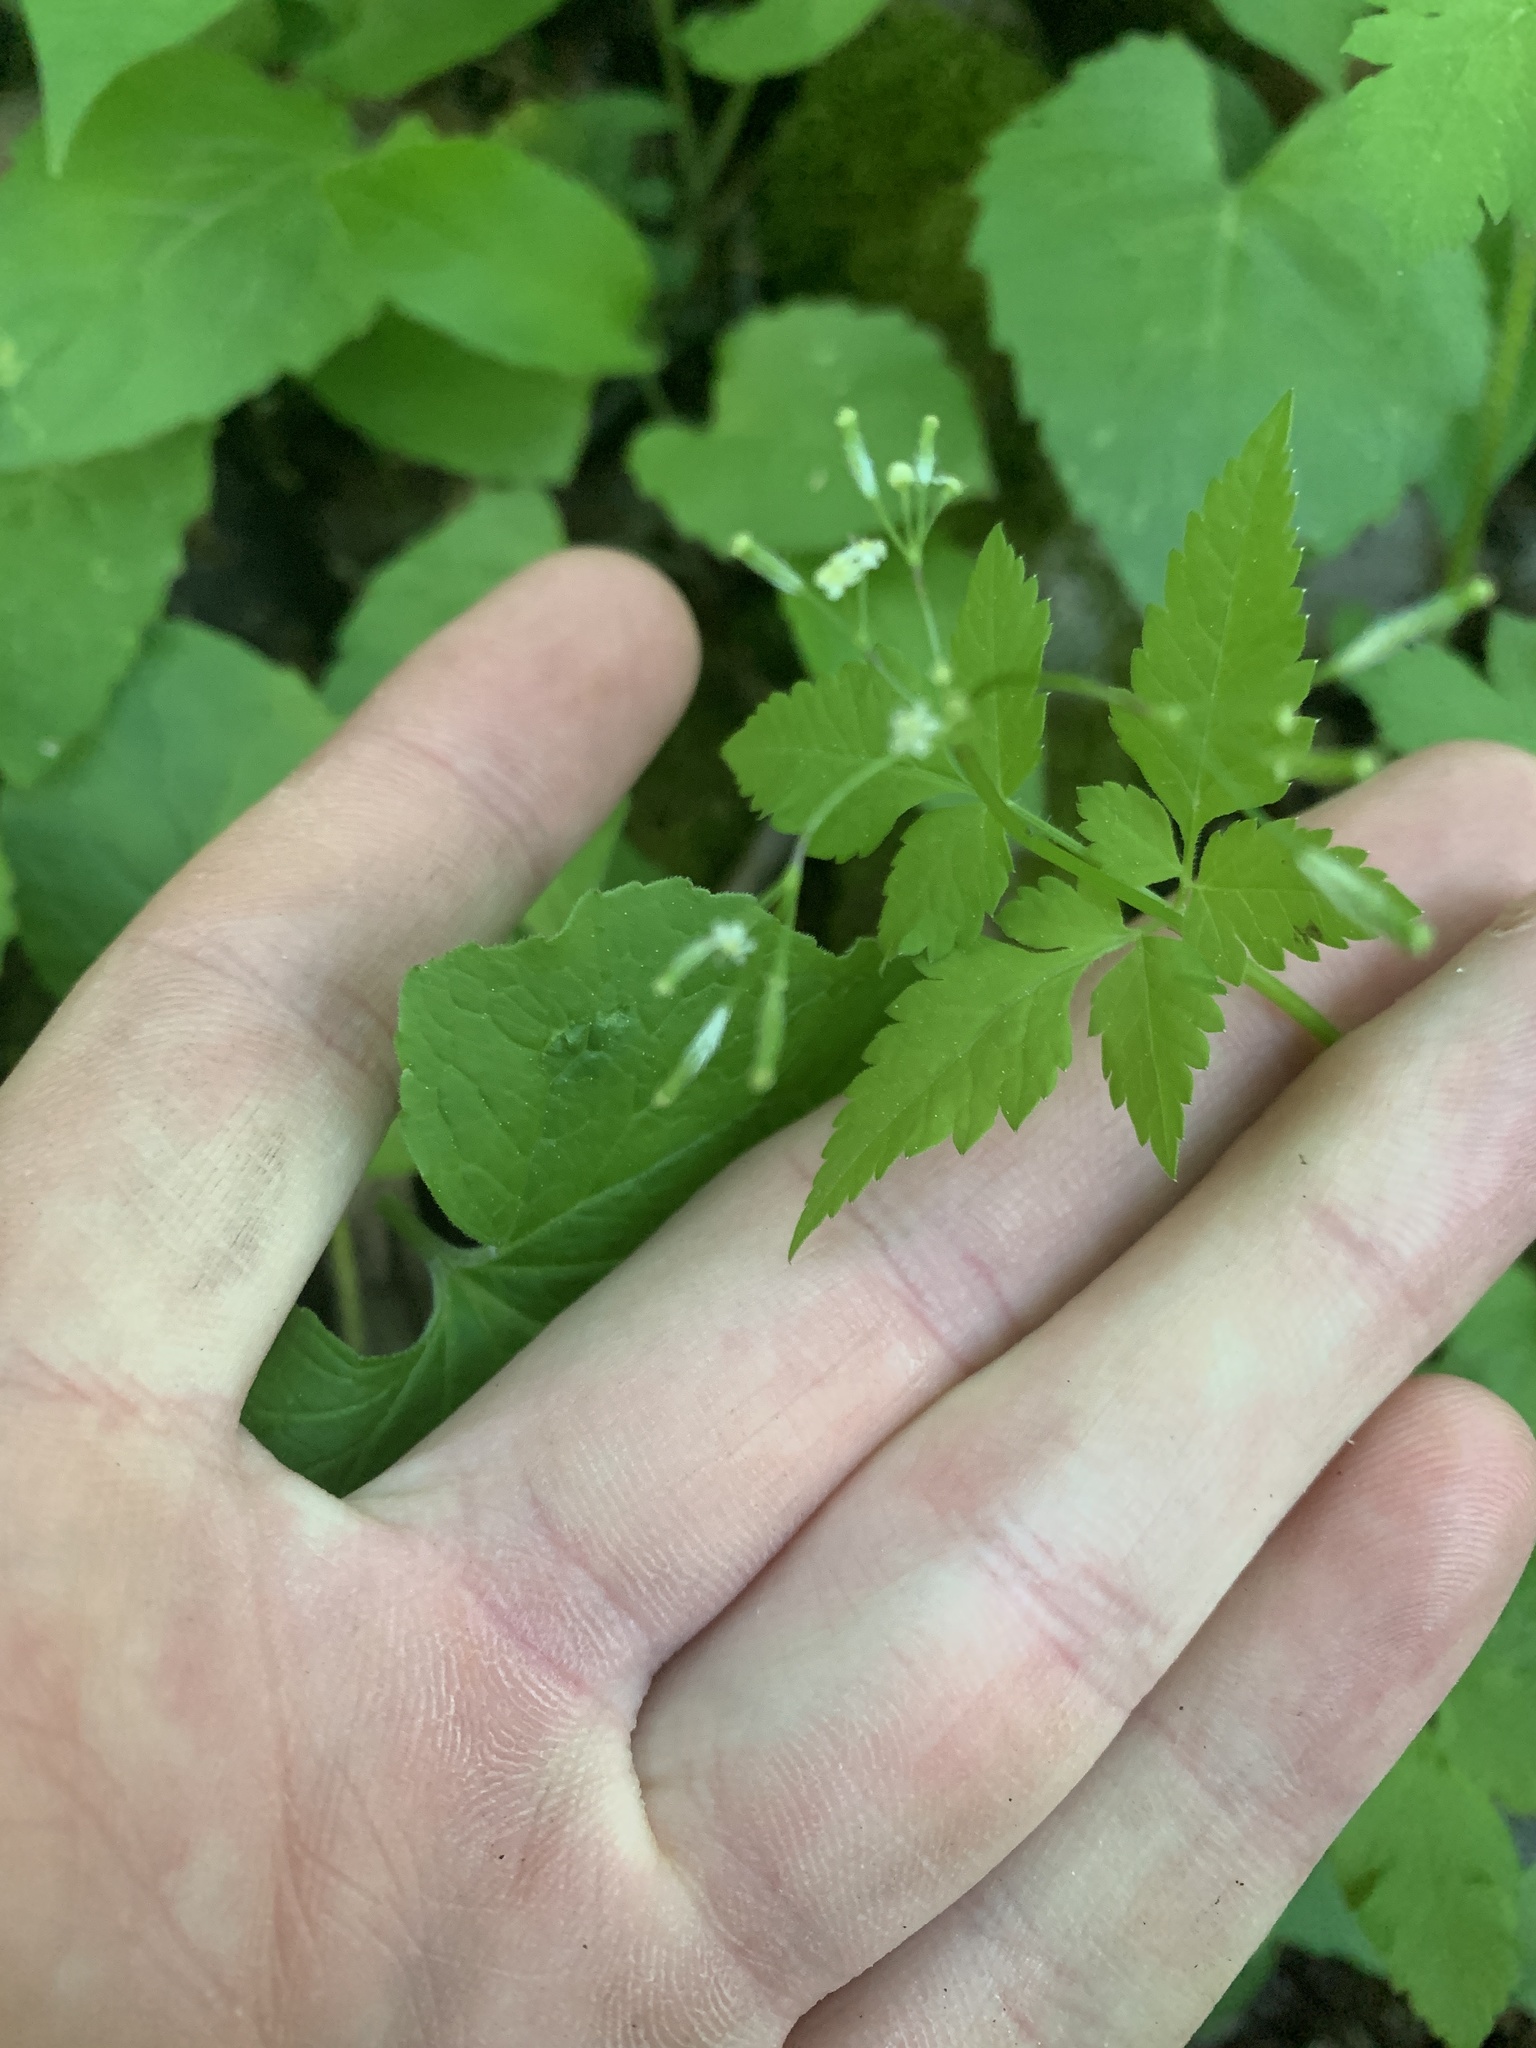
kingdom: Plantae
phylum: Tracheophyta
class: Magnoliopsida
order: Apiales
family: Apiaceae
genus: Osmorhiza
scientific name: Osmorhiza berteroi
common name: Mountain sweet cicely
